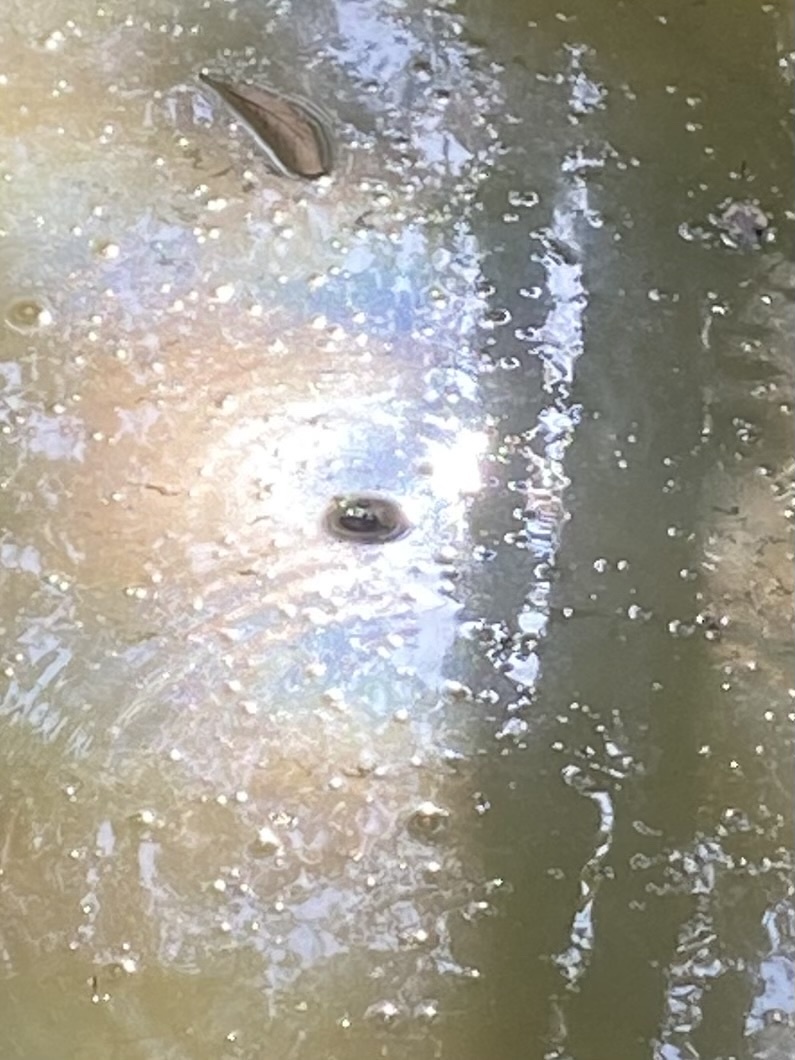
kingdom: Animalia
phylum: Chordata
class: Amphibia
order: Anura
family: Ranidae
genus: Pelophylax
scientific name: Pelophylax ridibundus
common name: Marsh frog
